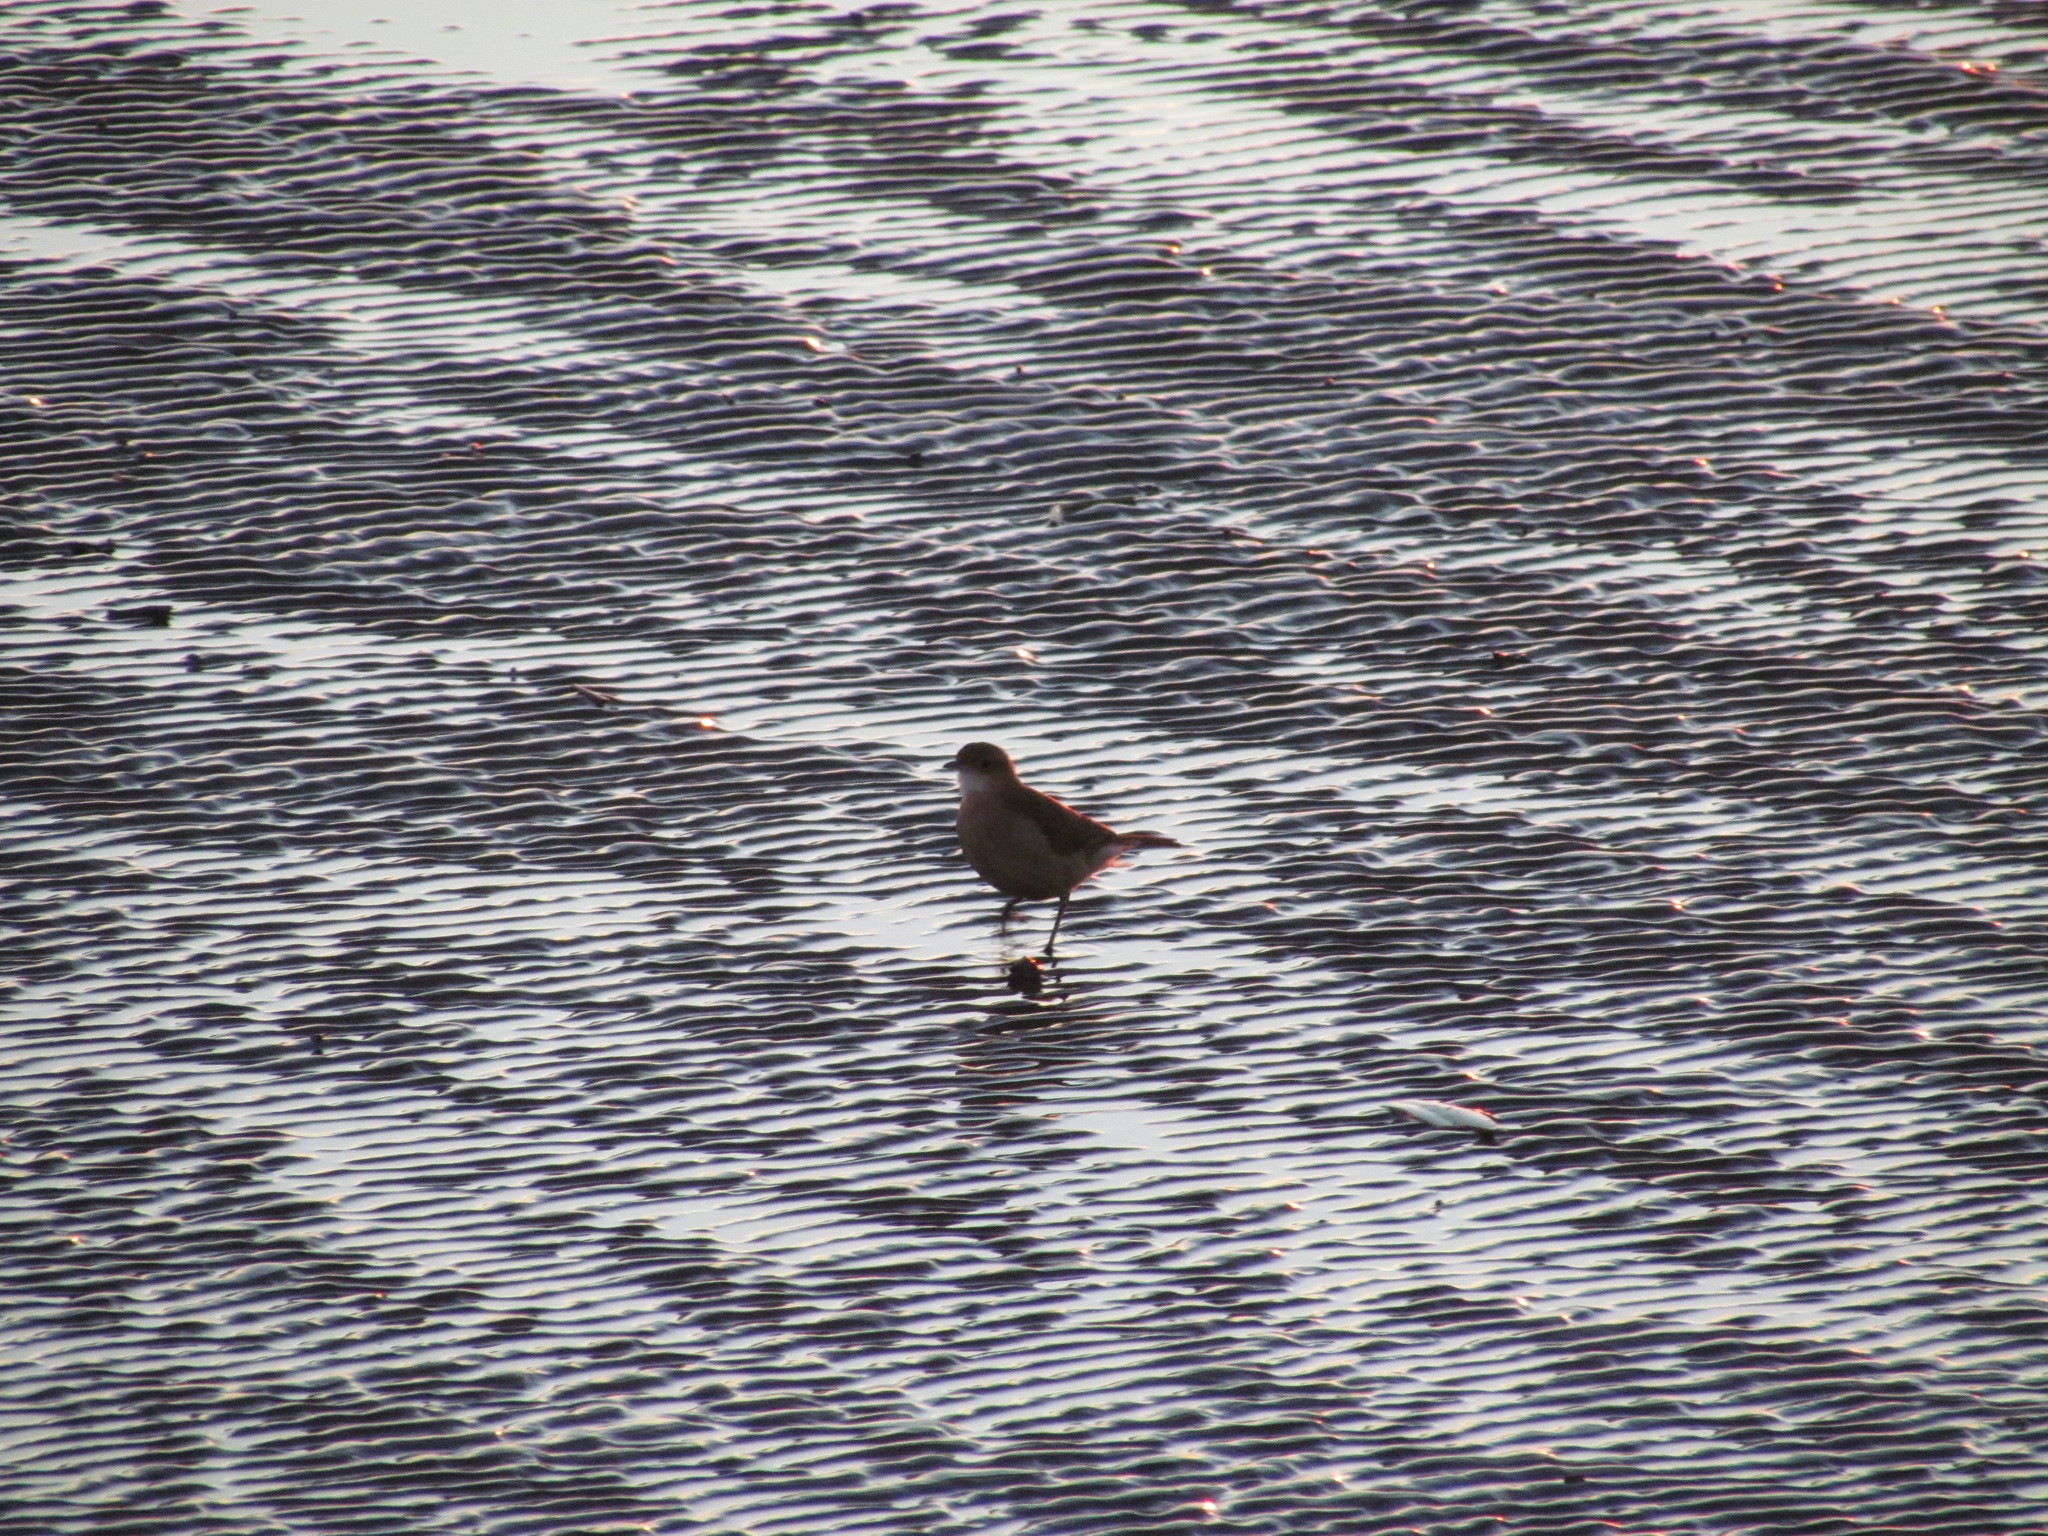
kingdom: Animalia
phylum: Chordata
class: Aves
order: Passeriformes
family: Furnariidae
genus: Furnarius
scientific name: Furnarius rufus
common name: Rufous hornero
